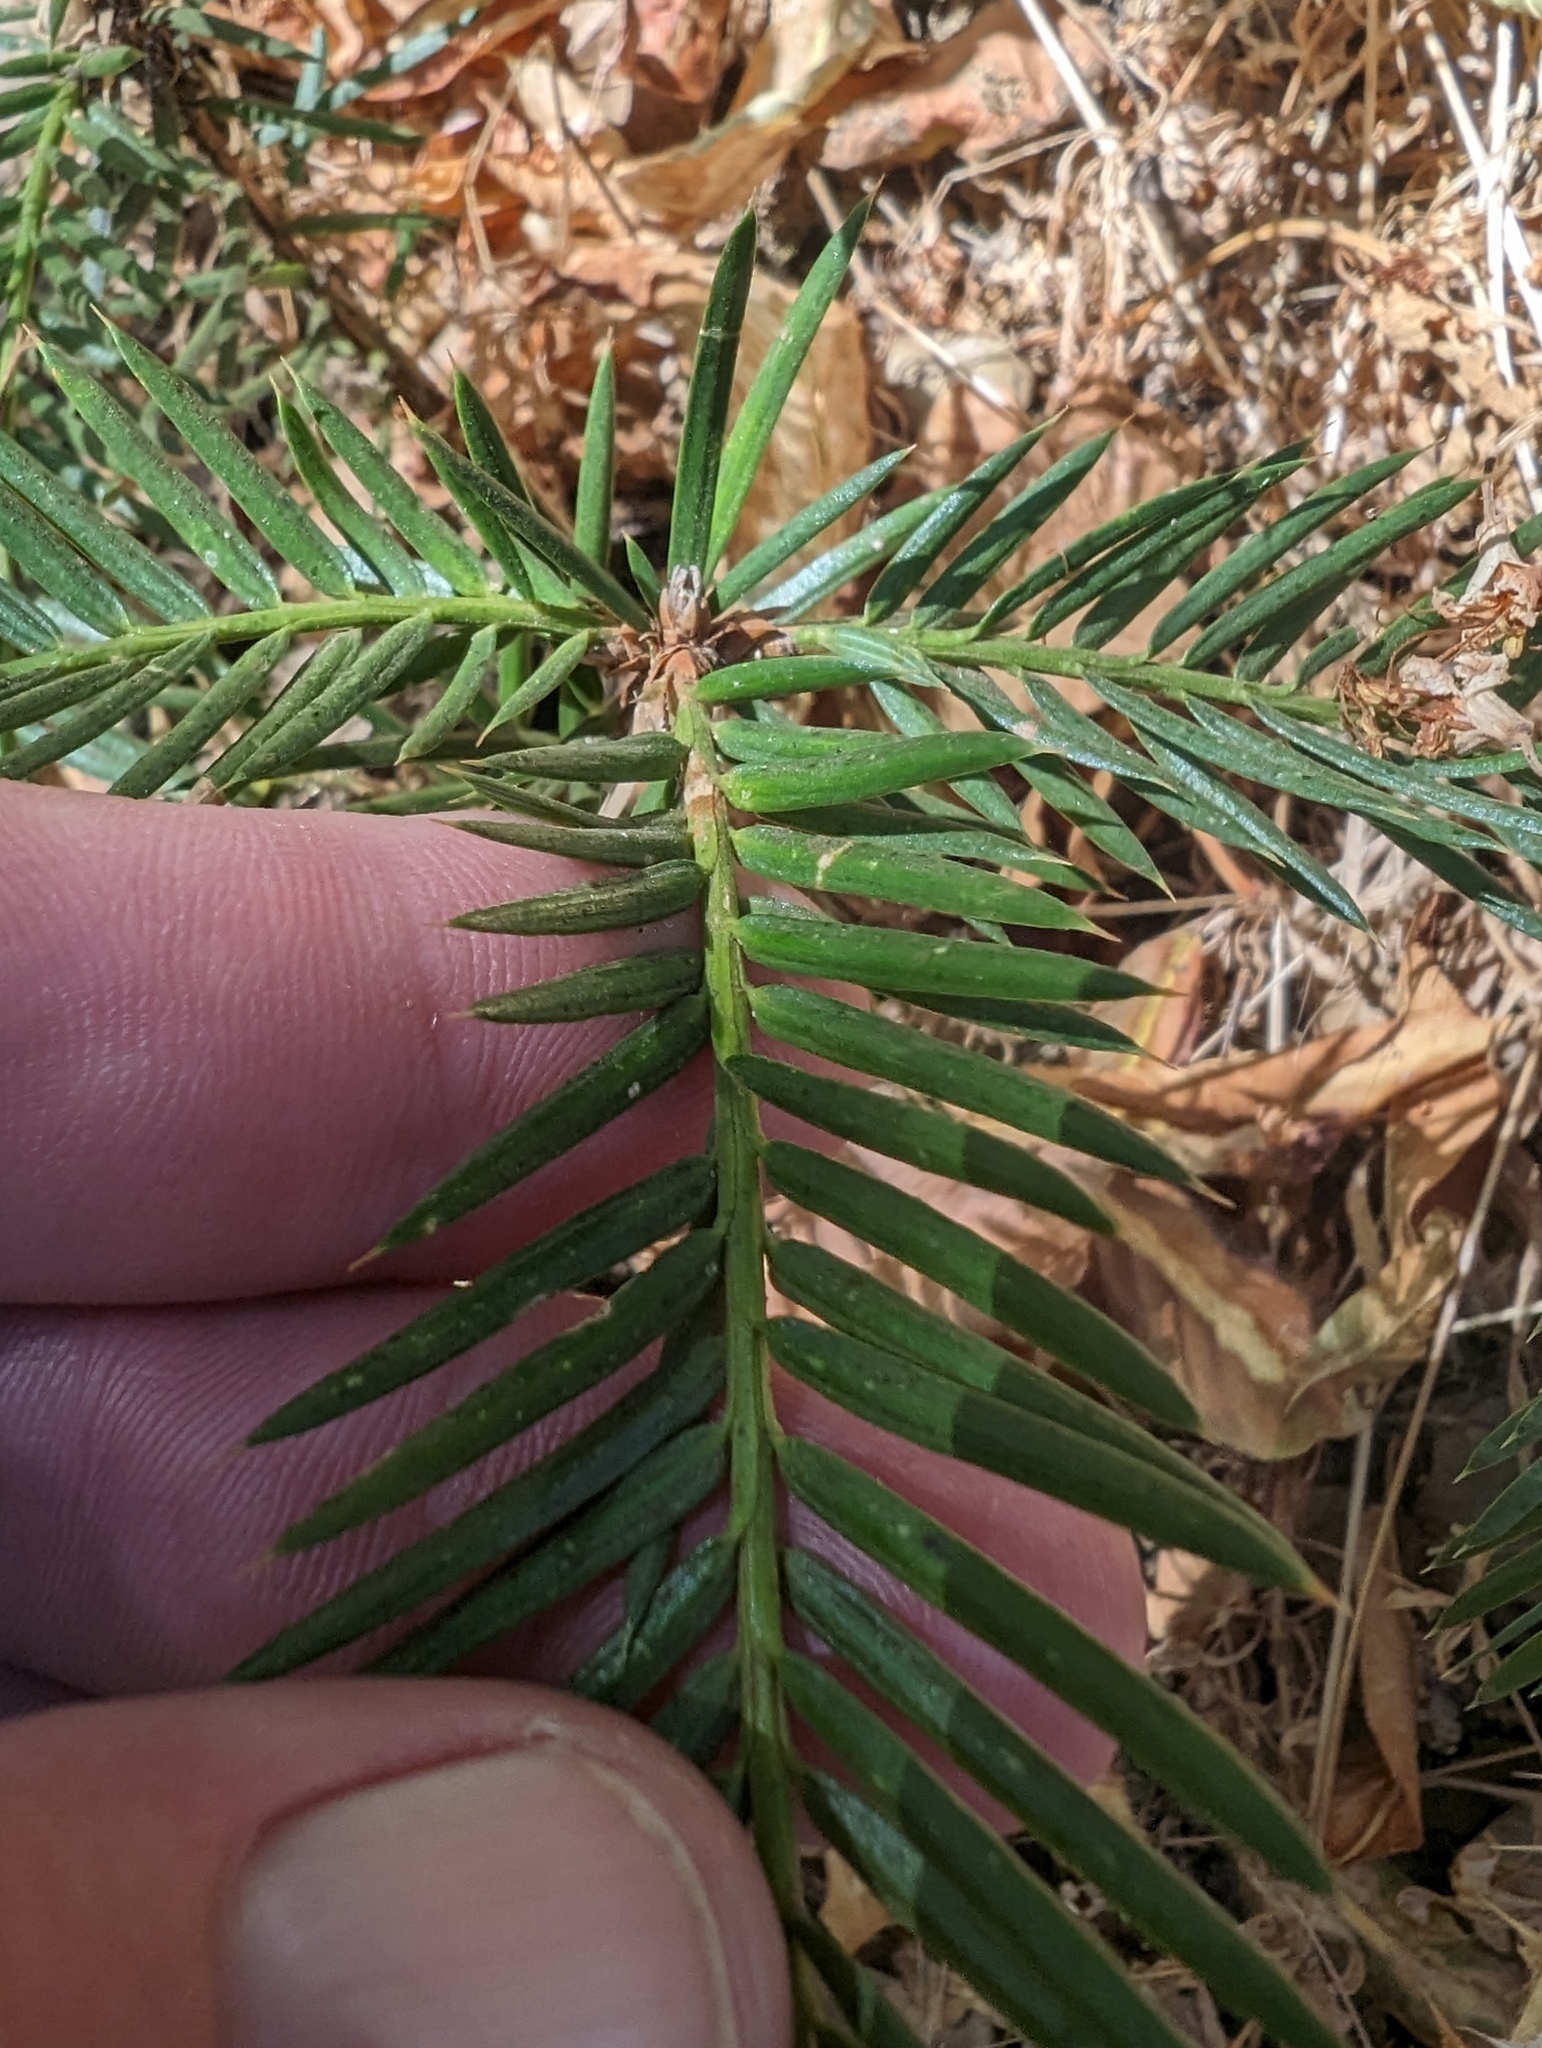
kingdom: Plantae
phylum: Tracheophyta
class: Pinopsida
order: Pinales
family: Taxaceae
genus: Torreya
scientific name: Torreya californica
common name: California torreya
